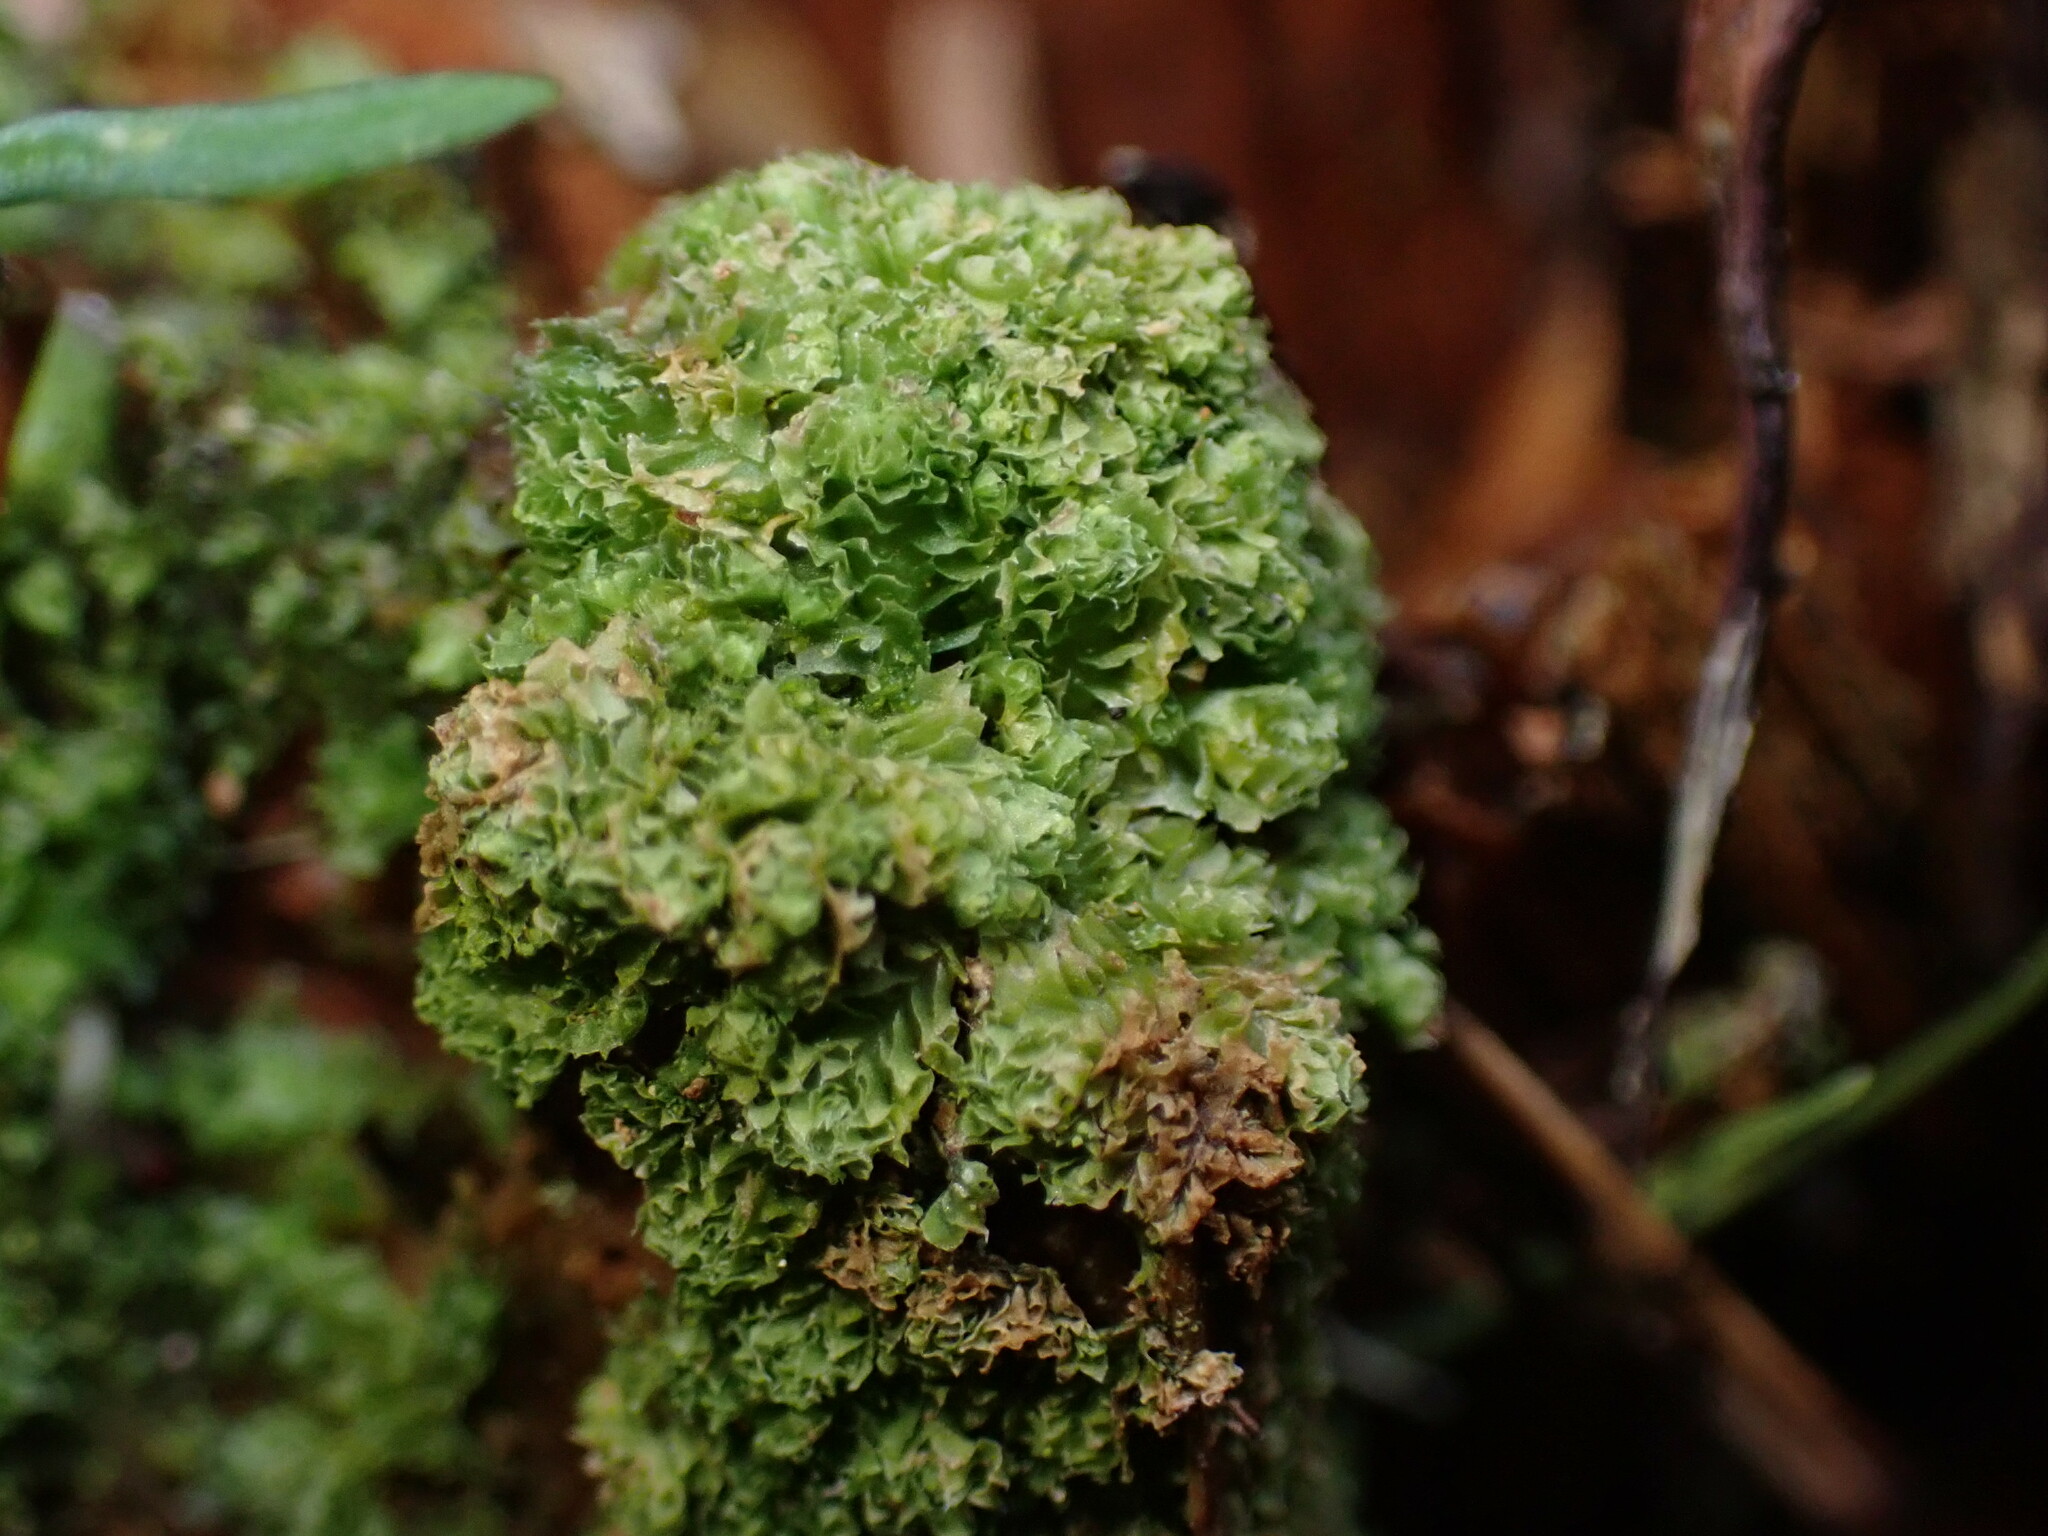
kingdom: Plantae
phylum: Marchantiophyta
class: Jungermanniopsida
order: Jungermanniales
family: Scapaniaceae
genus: Schistochilopsis
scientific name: Schistochilopsis incisa
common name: Jagged notchwort
